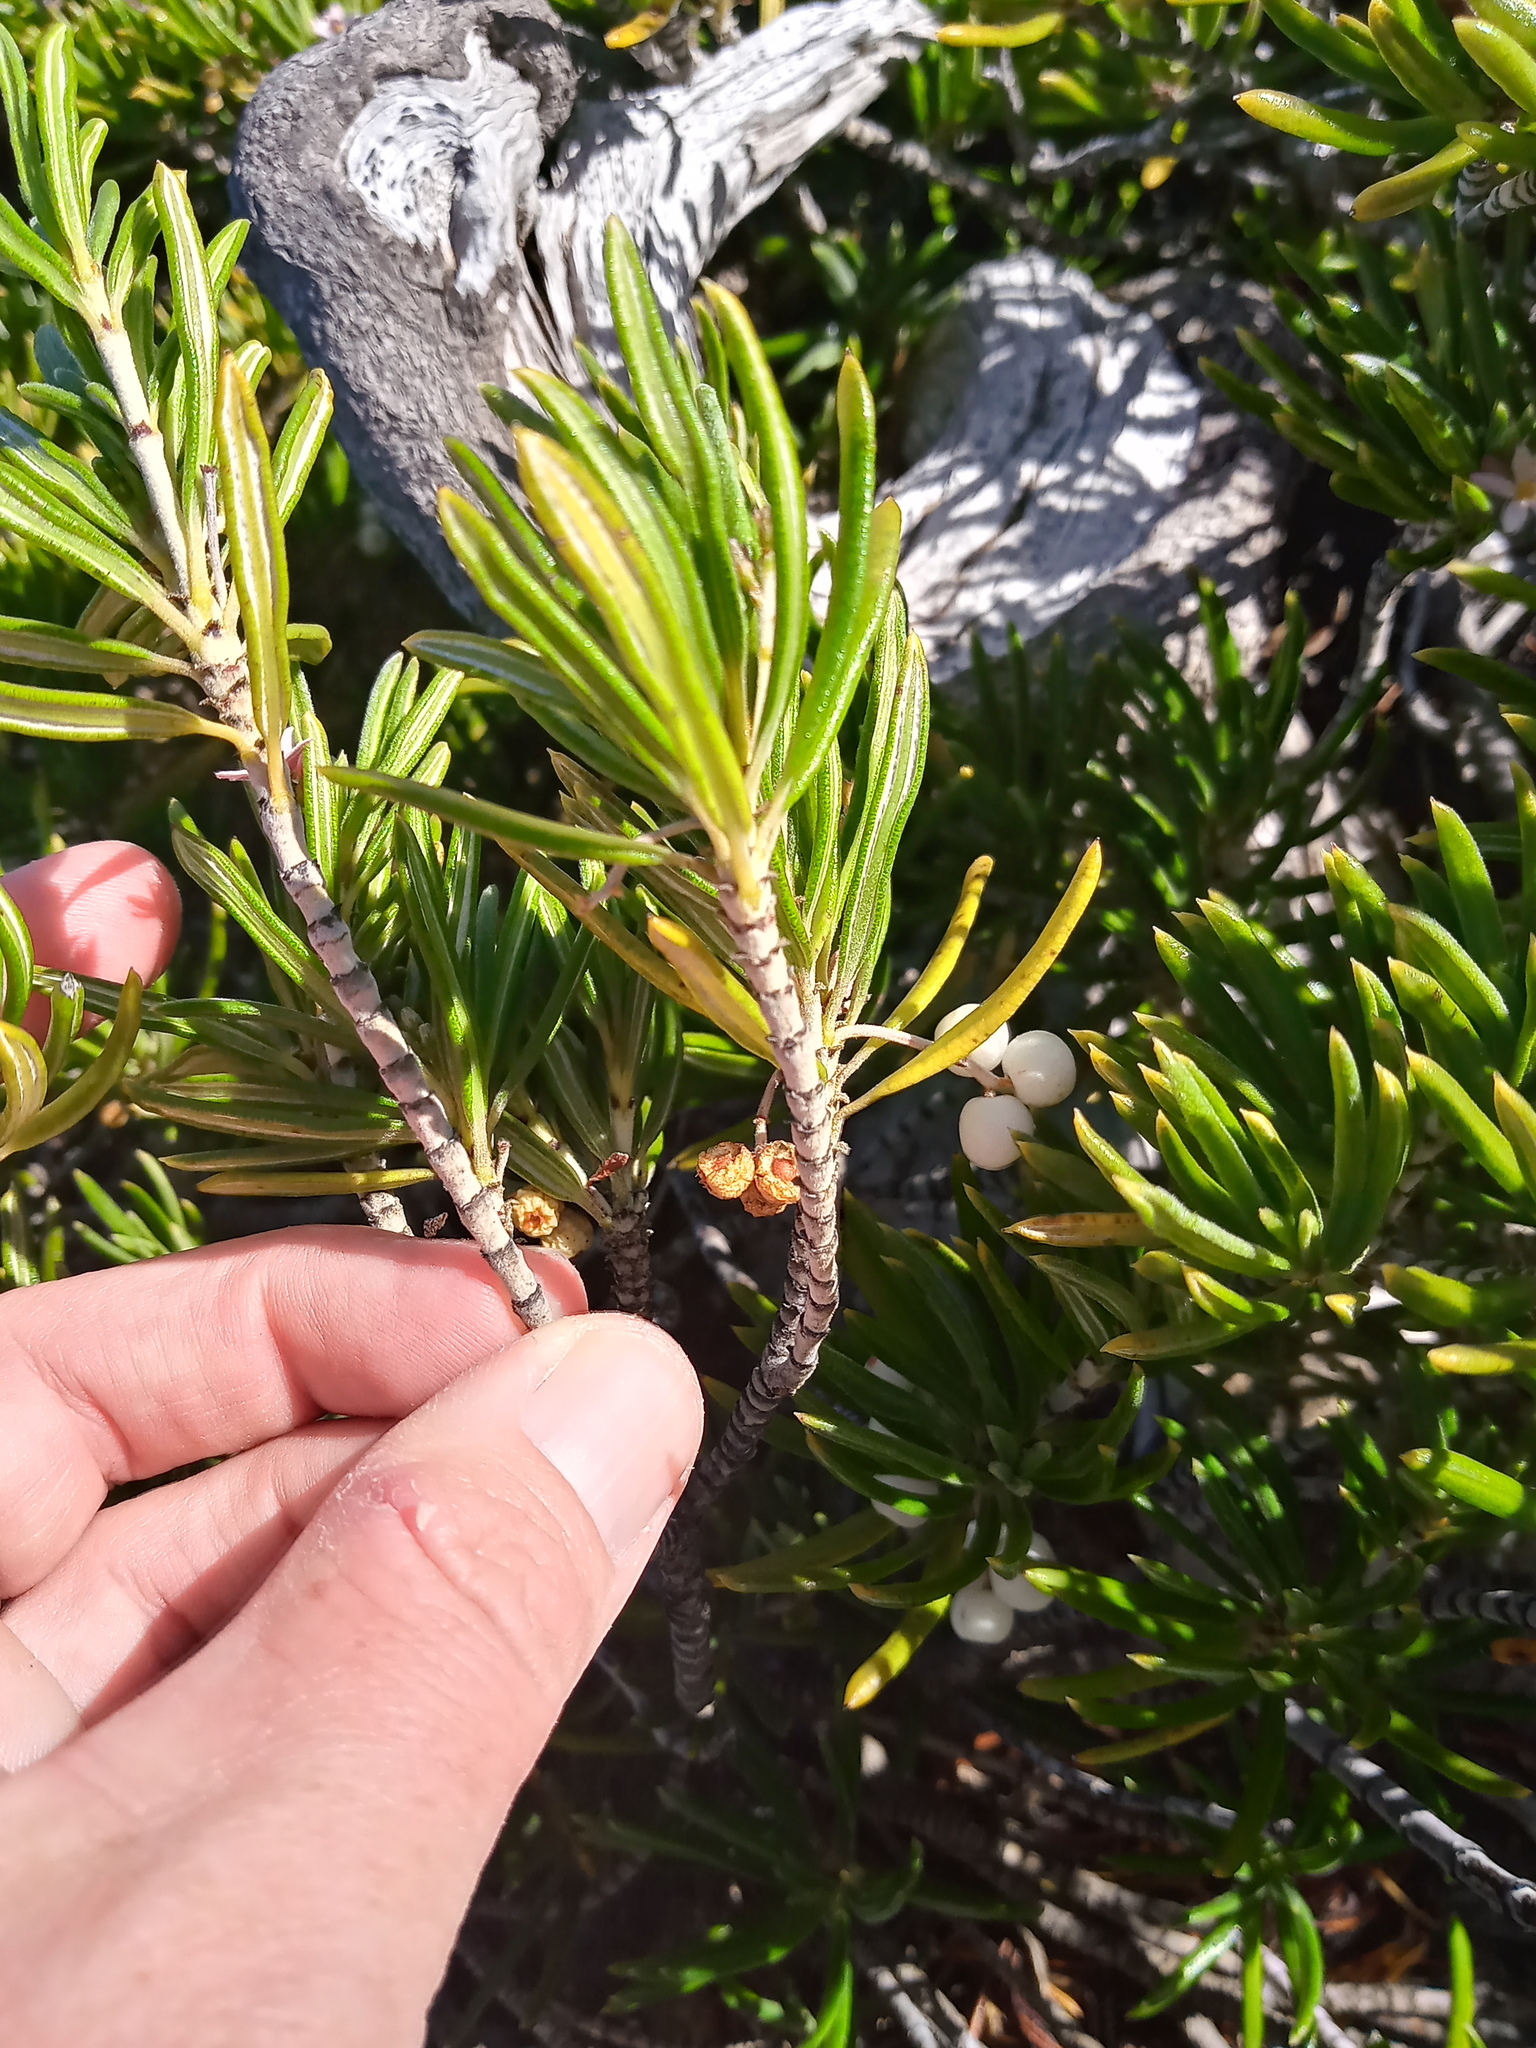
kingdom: Plantae
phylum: Tracheophyta
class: Magnoliopsida
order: Gentianales
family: Rubiaceae
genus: Strumpfia
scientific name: Strumpfia maritima
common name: Pride-of-big pine
